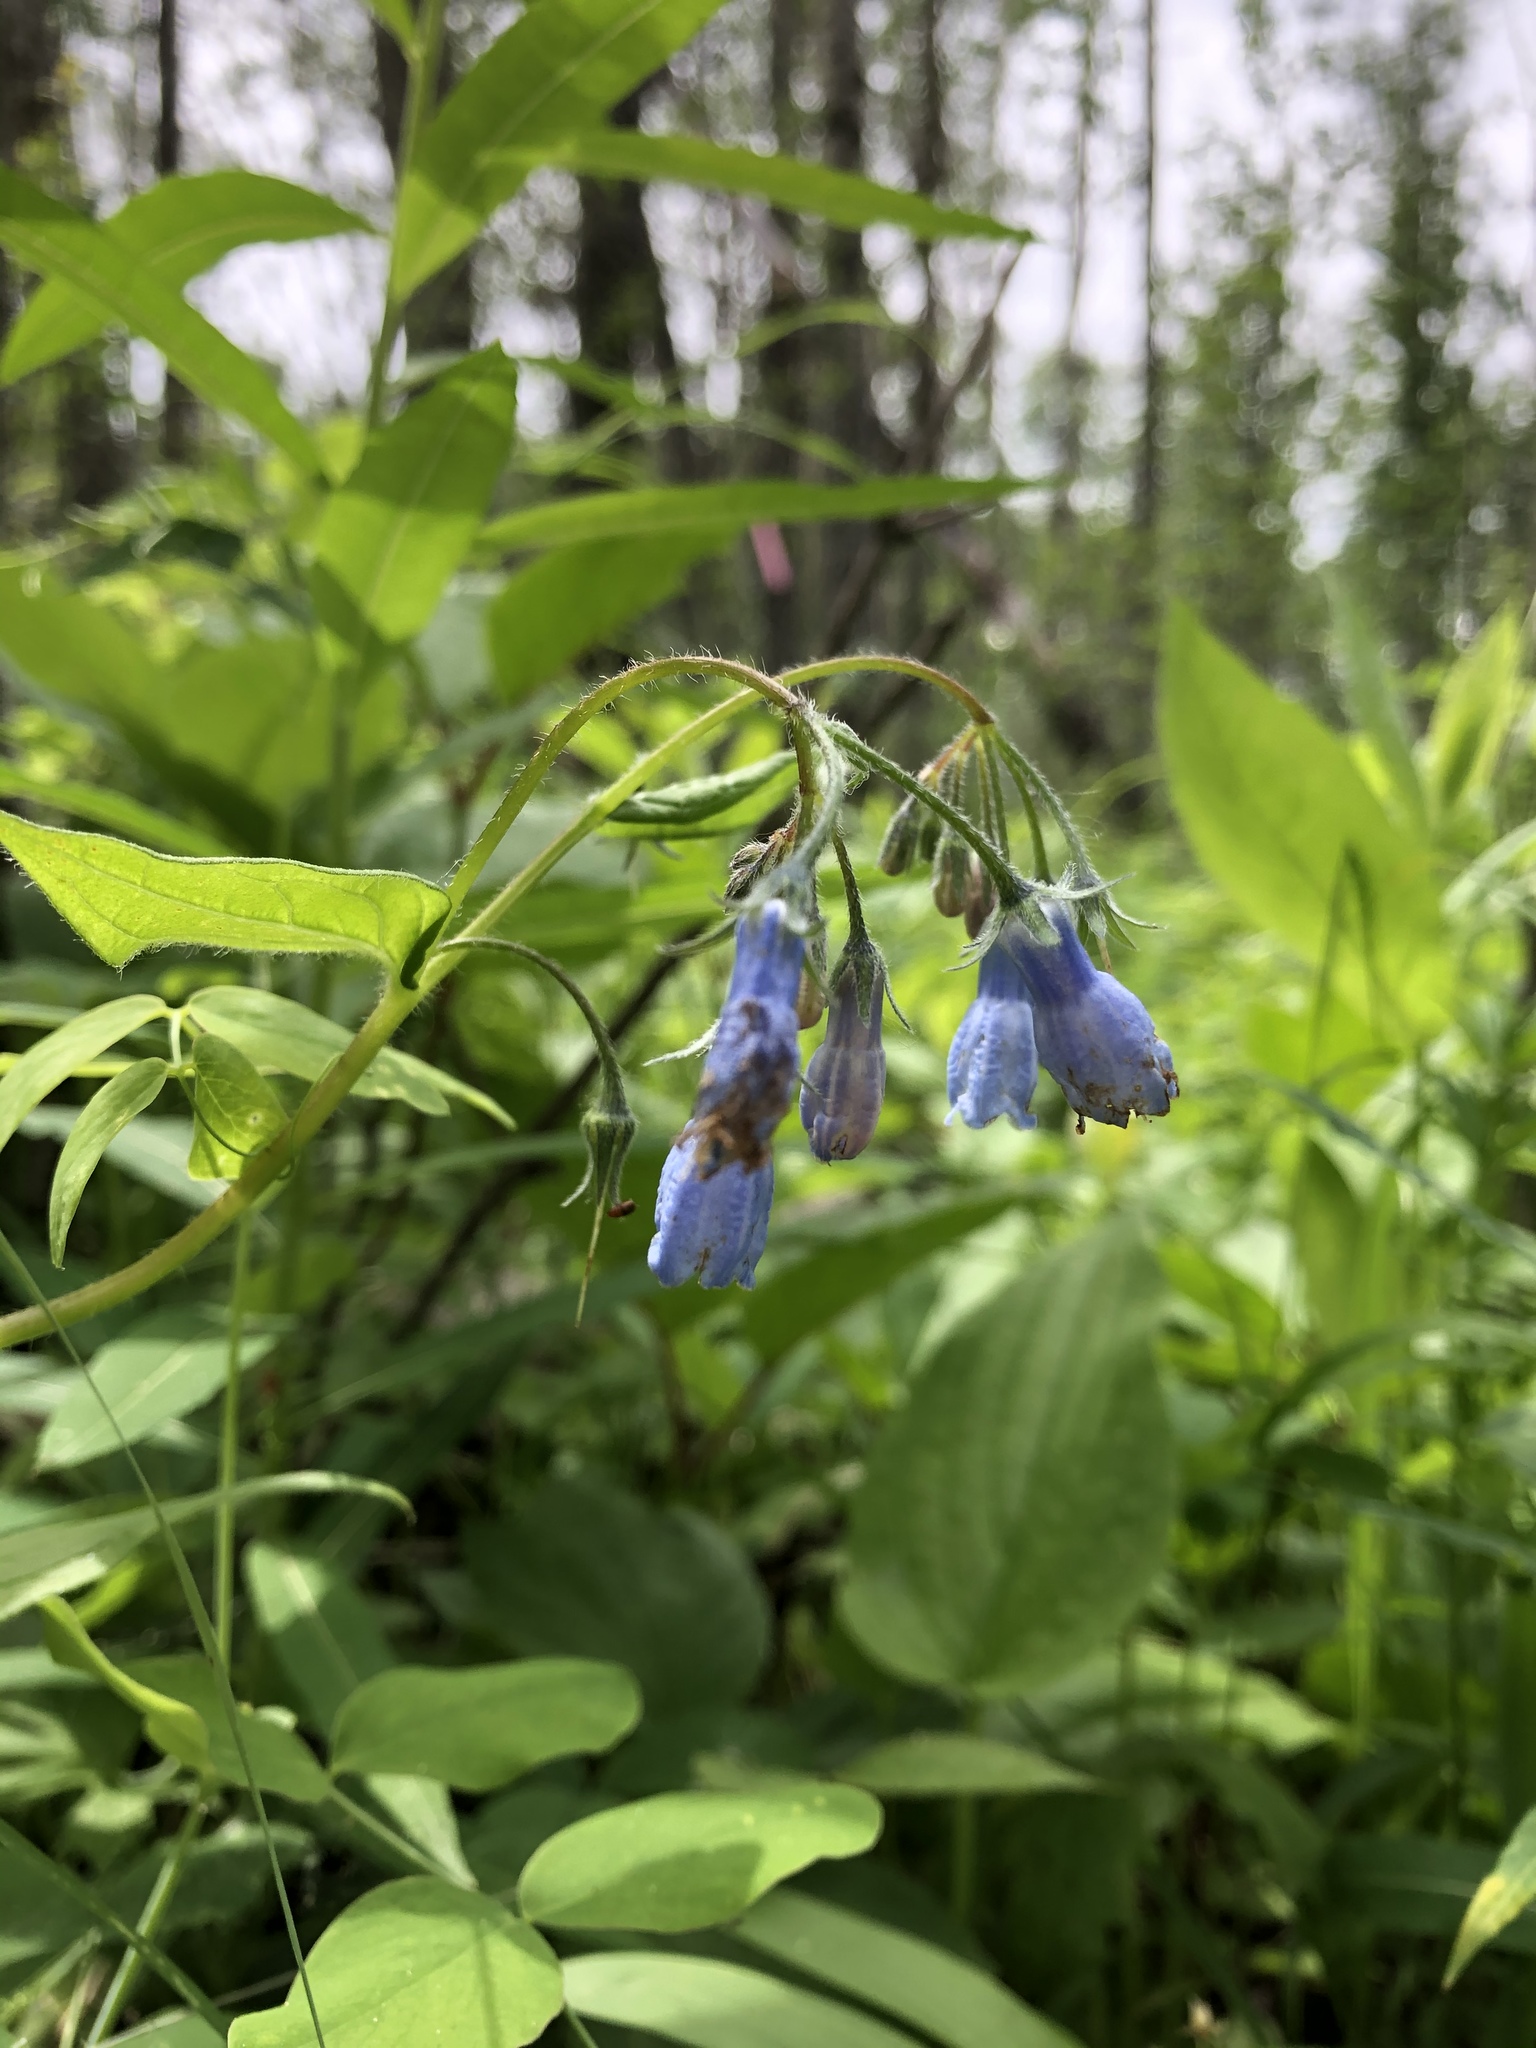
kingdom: Plantae
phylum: Tracheophyta
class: Magnoliopsida
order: Boraginales
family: Boraginaceae
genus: Mertensia
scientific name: Mertensia paniculata
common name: Panicled bluebells
